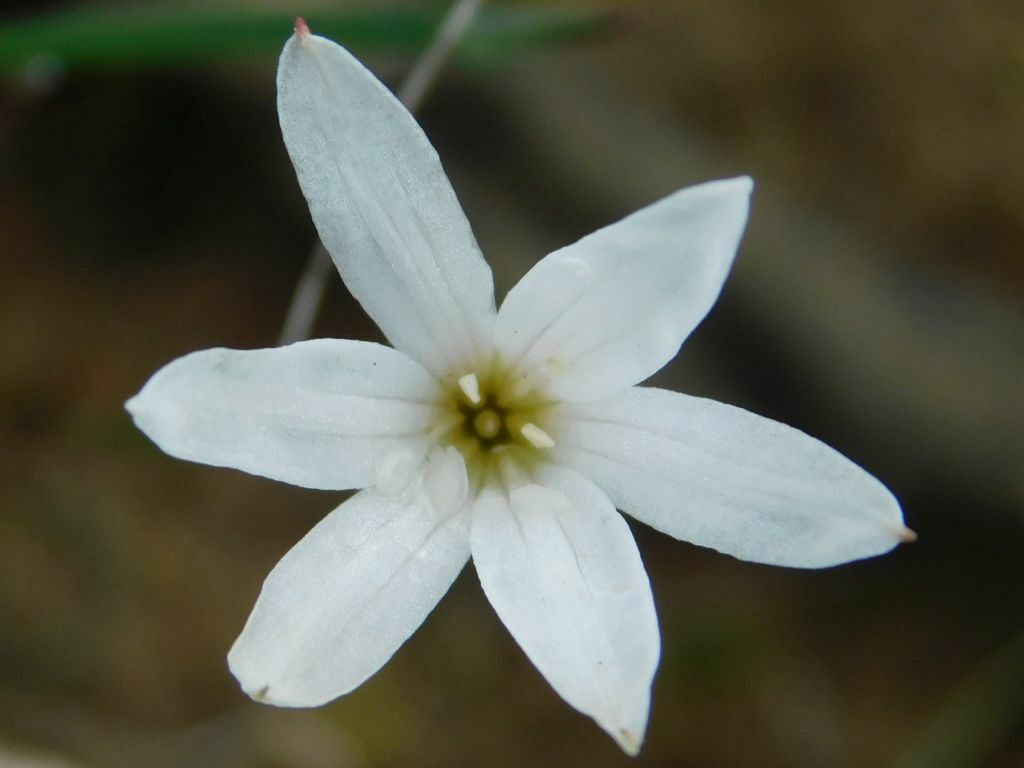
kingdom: Plantae
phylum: Tracheophyta
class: Liliopsida
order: Asparagales
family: Amaryllidaceae
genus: Strumaria
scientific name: Strumaria spiralis
